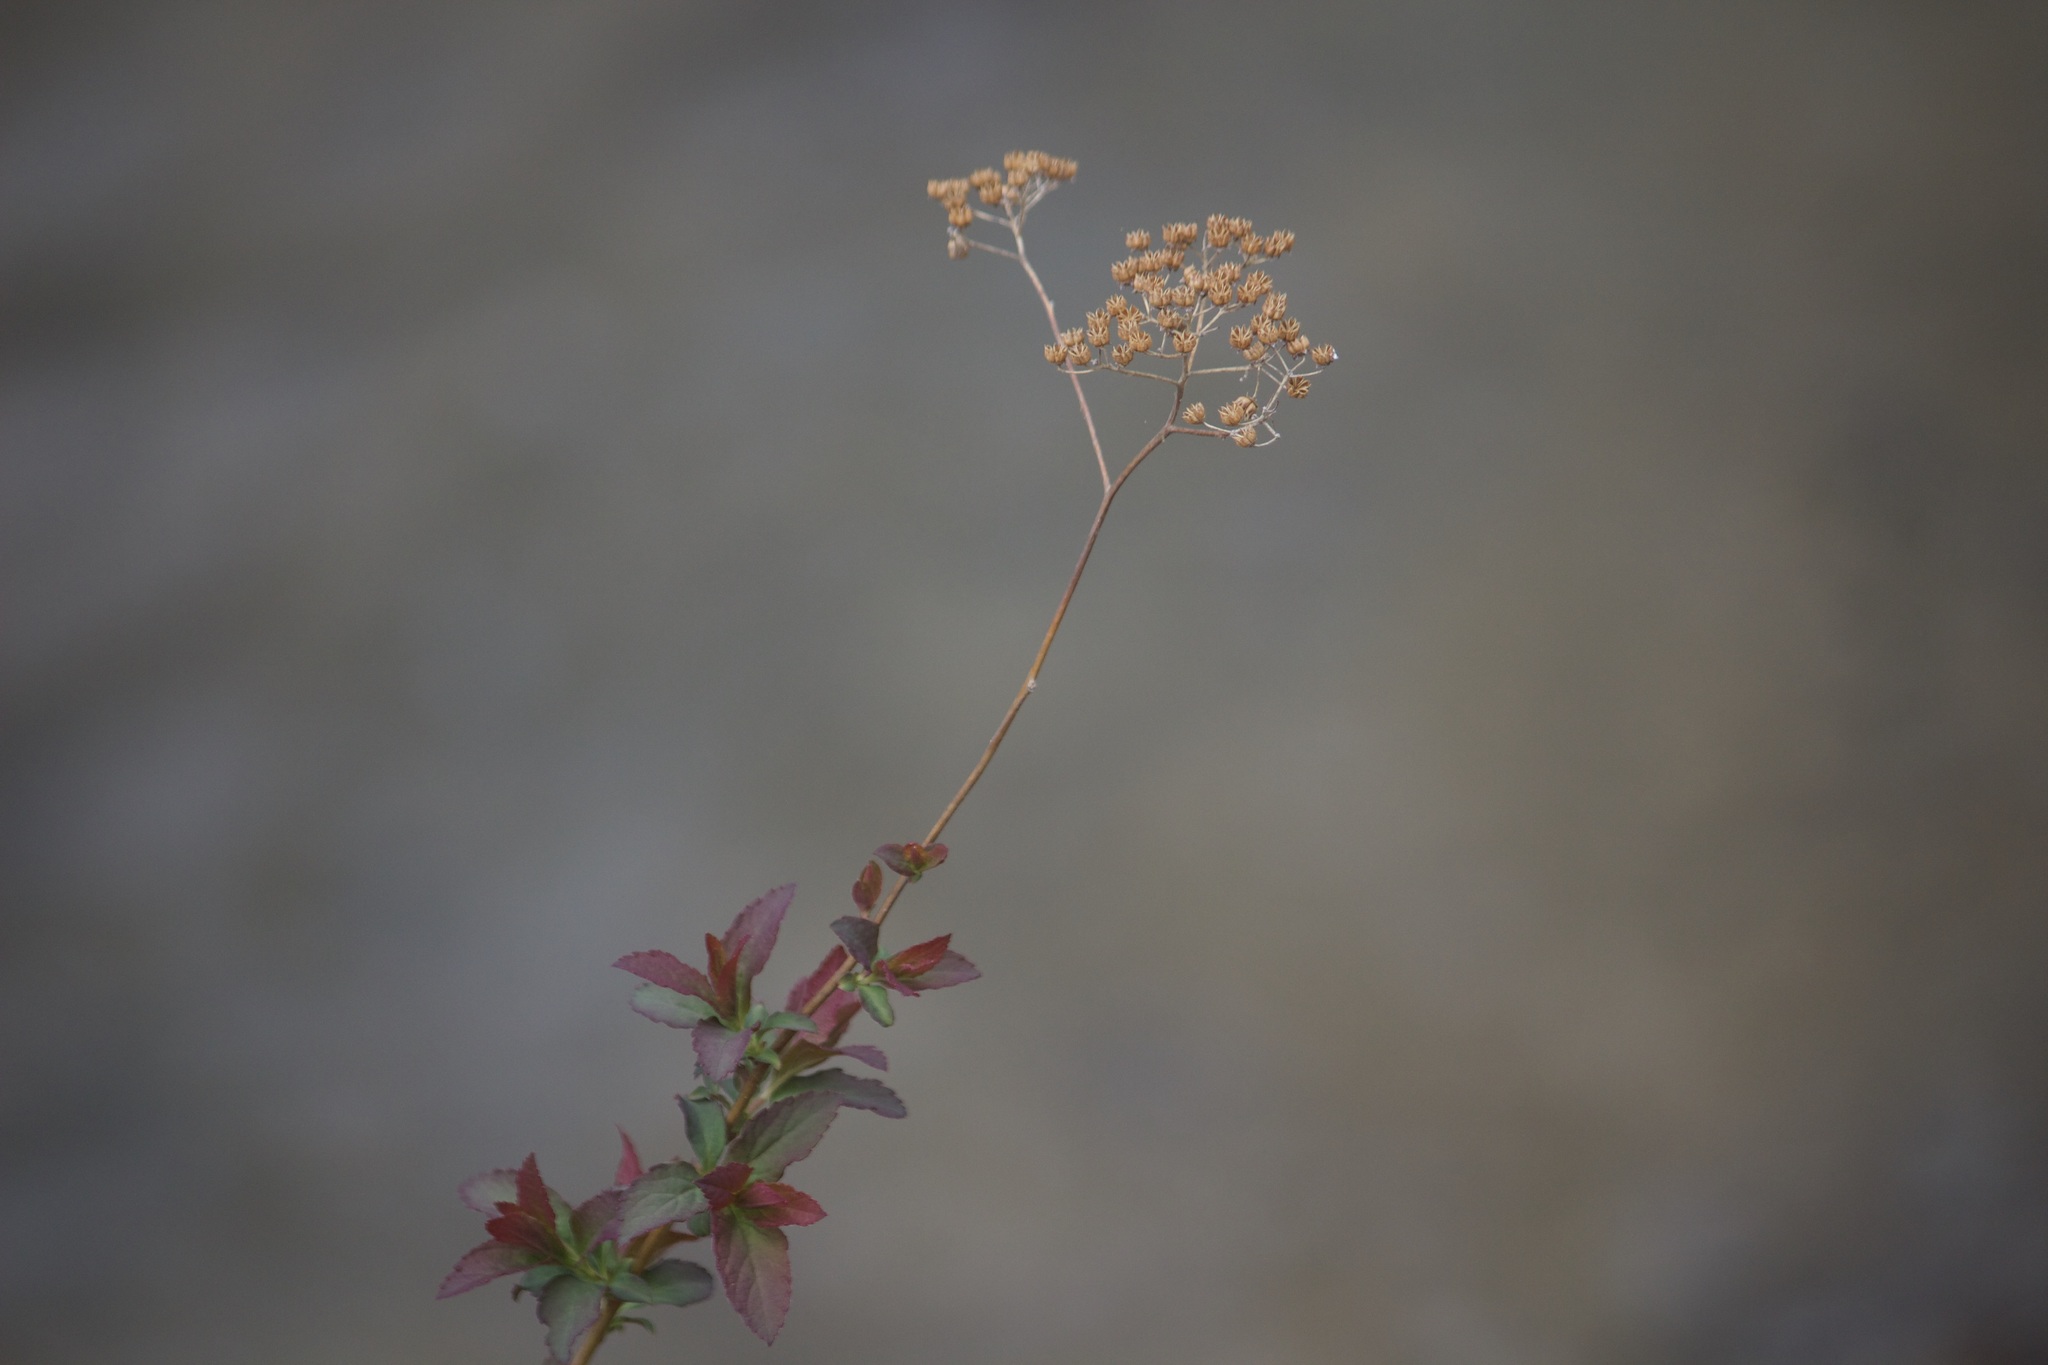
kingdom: Plantae
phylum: Tracheophyta
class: Magnoliopsida
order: Rosales
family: Rosaceae
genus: Spiraea
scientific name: Spiraea japonica
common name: Japanese spiraea
